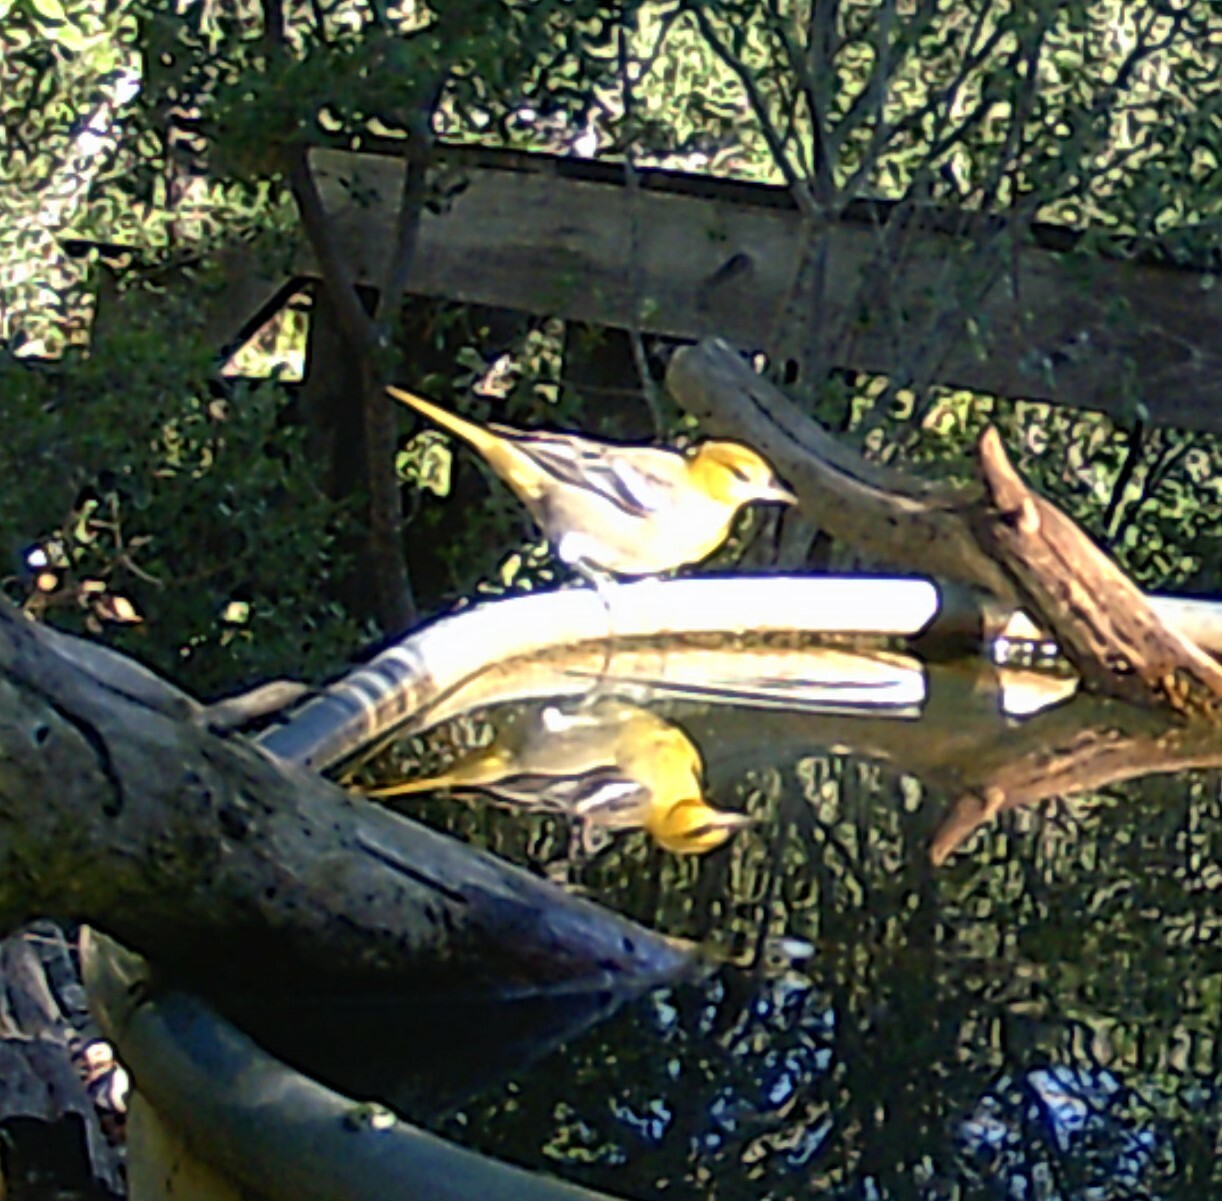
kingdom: Animalia
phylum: Chordata
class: Aves
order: Passeriformes
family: Icteridae
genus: Icterus
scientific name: Icterus bullockii
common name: Bullock's oriole
